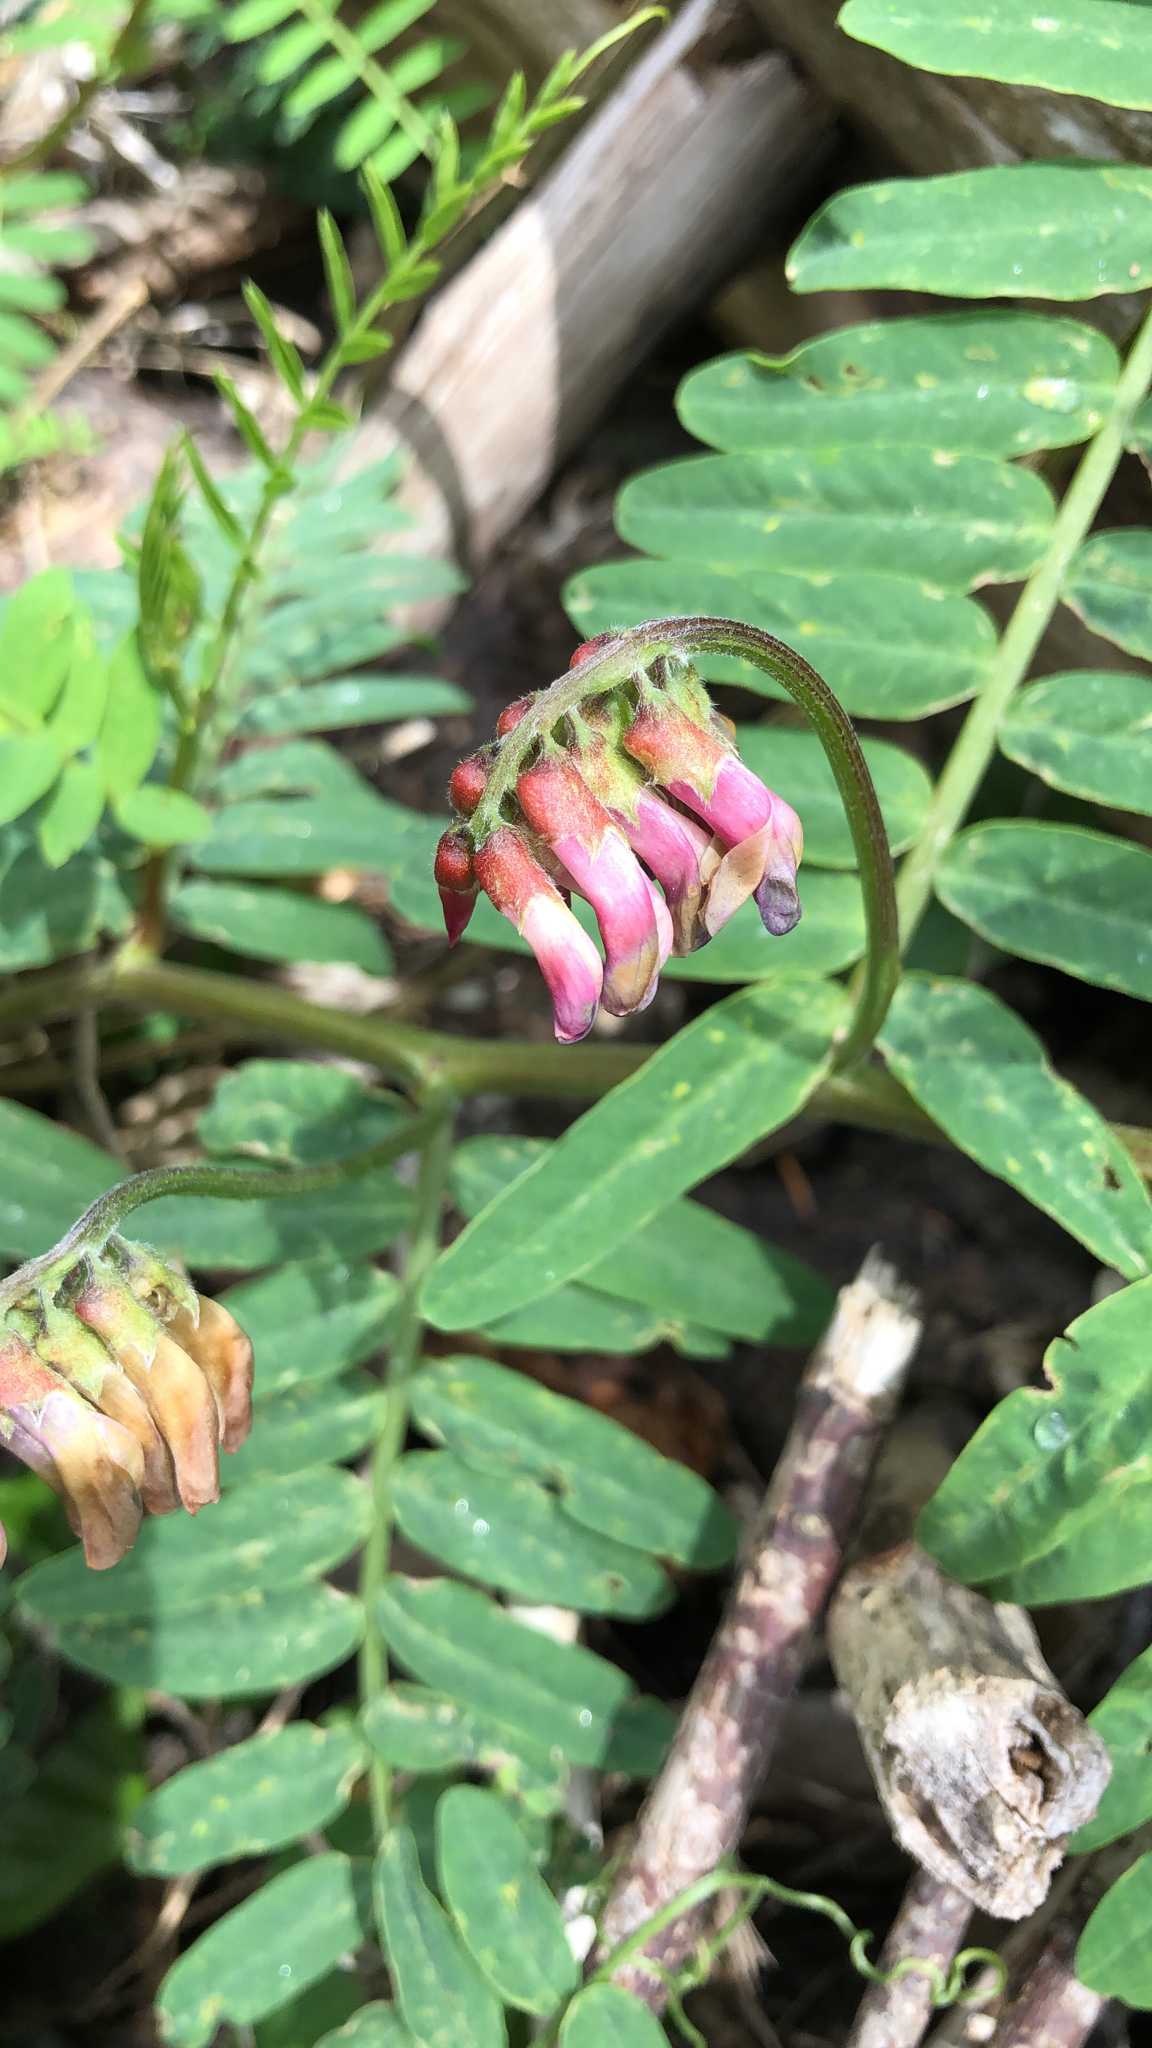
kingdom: Plantae
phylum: Tracheophyta
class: Magnoliopsida
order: Fabales
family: Fabaceae
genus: Vicia
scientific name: Vicia
